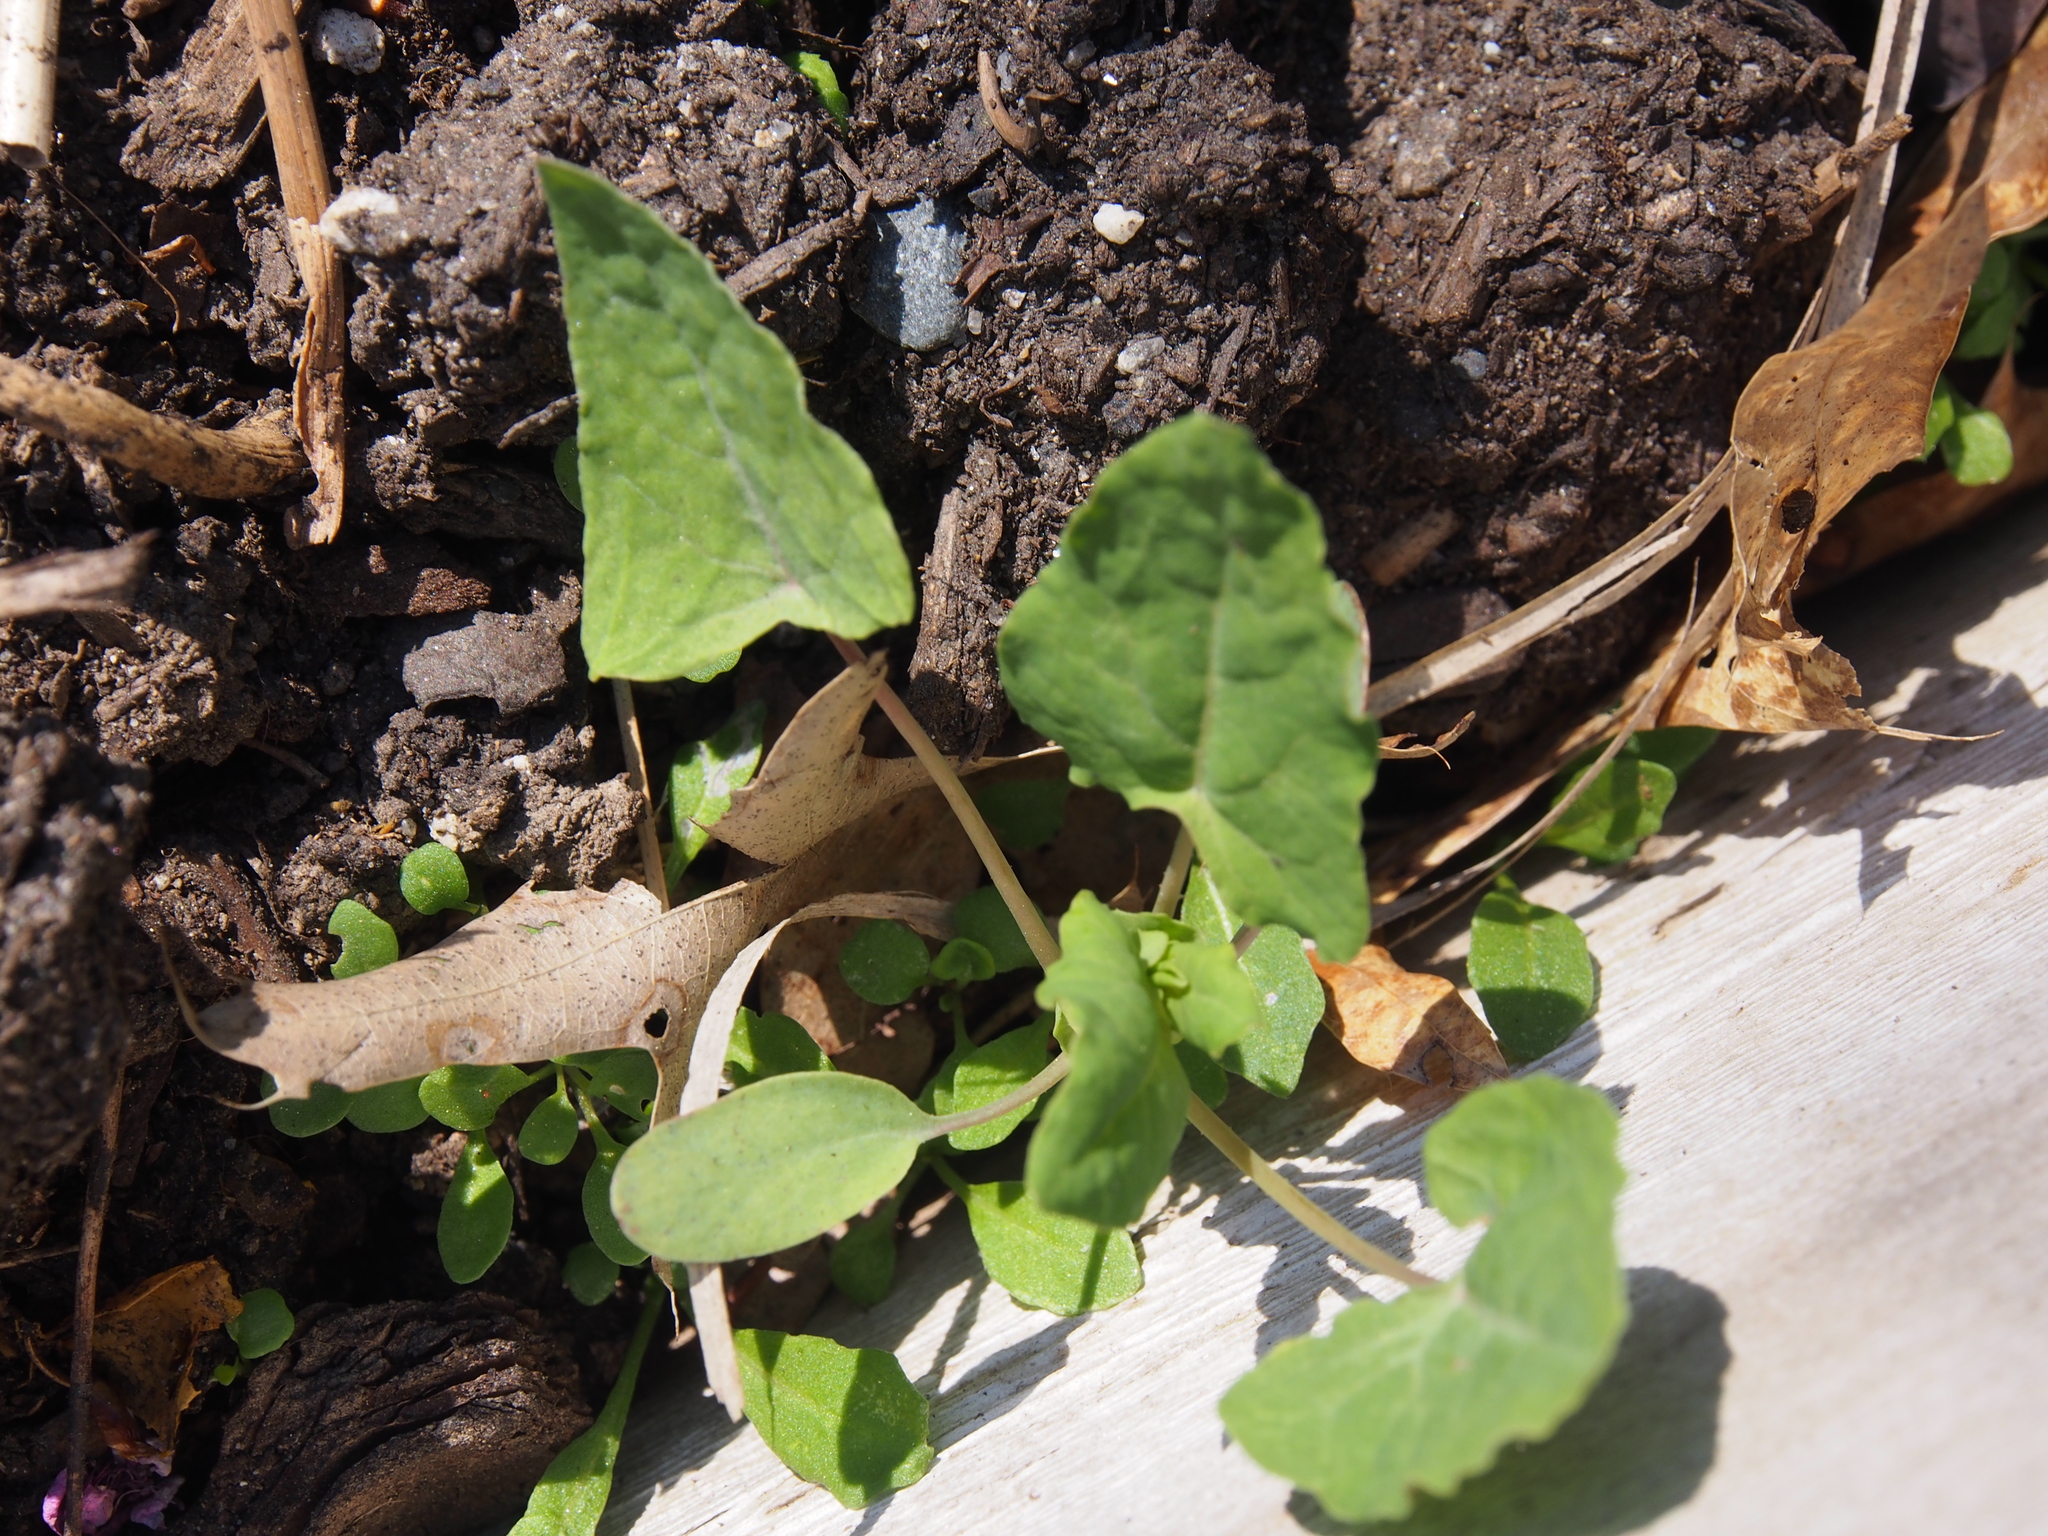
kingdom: Plantae
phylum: Tracheophyta
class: Magnoliopsida
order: Caryophyllales
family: Polygonaceae
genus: Persicaria
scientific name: Persicaria perfoliata
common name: Asiatic tearthumb
